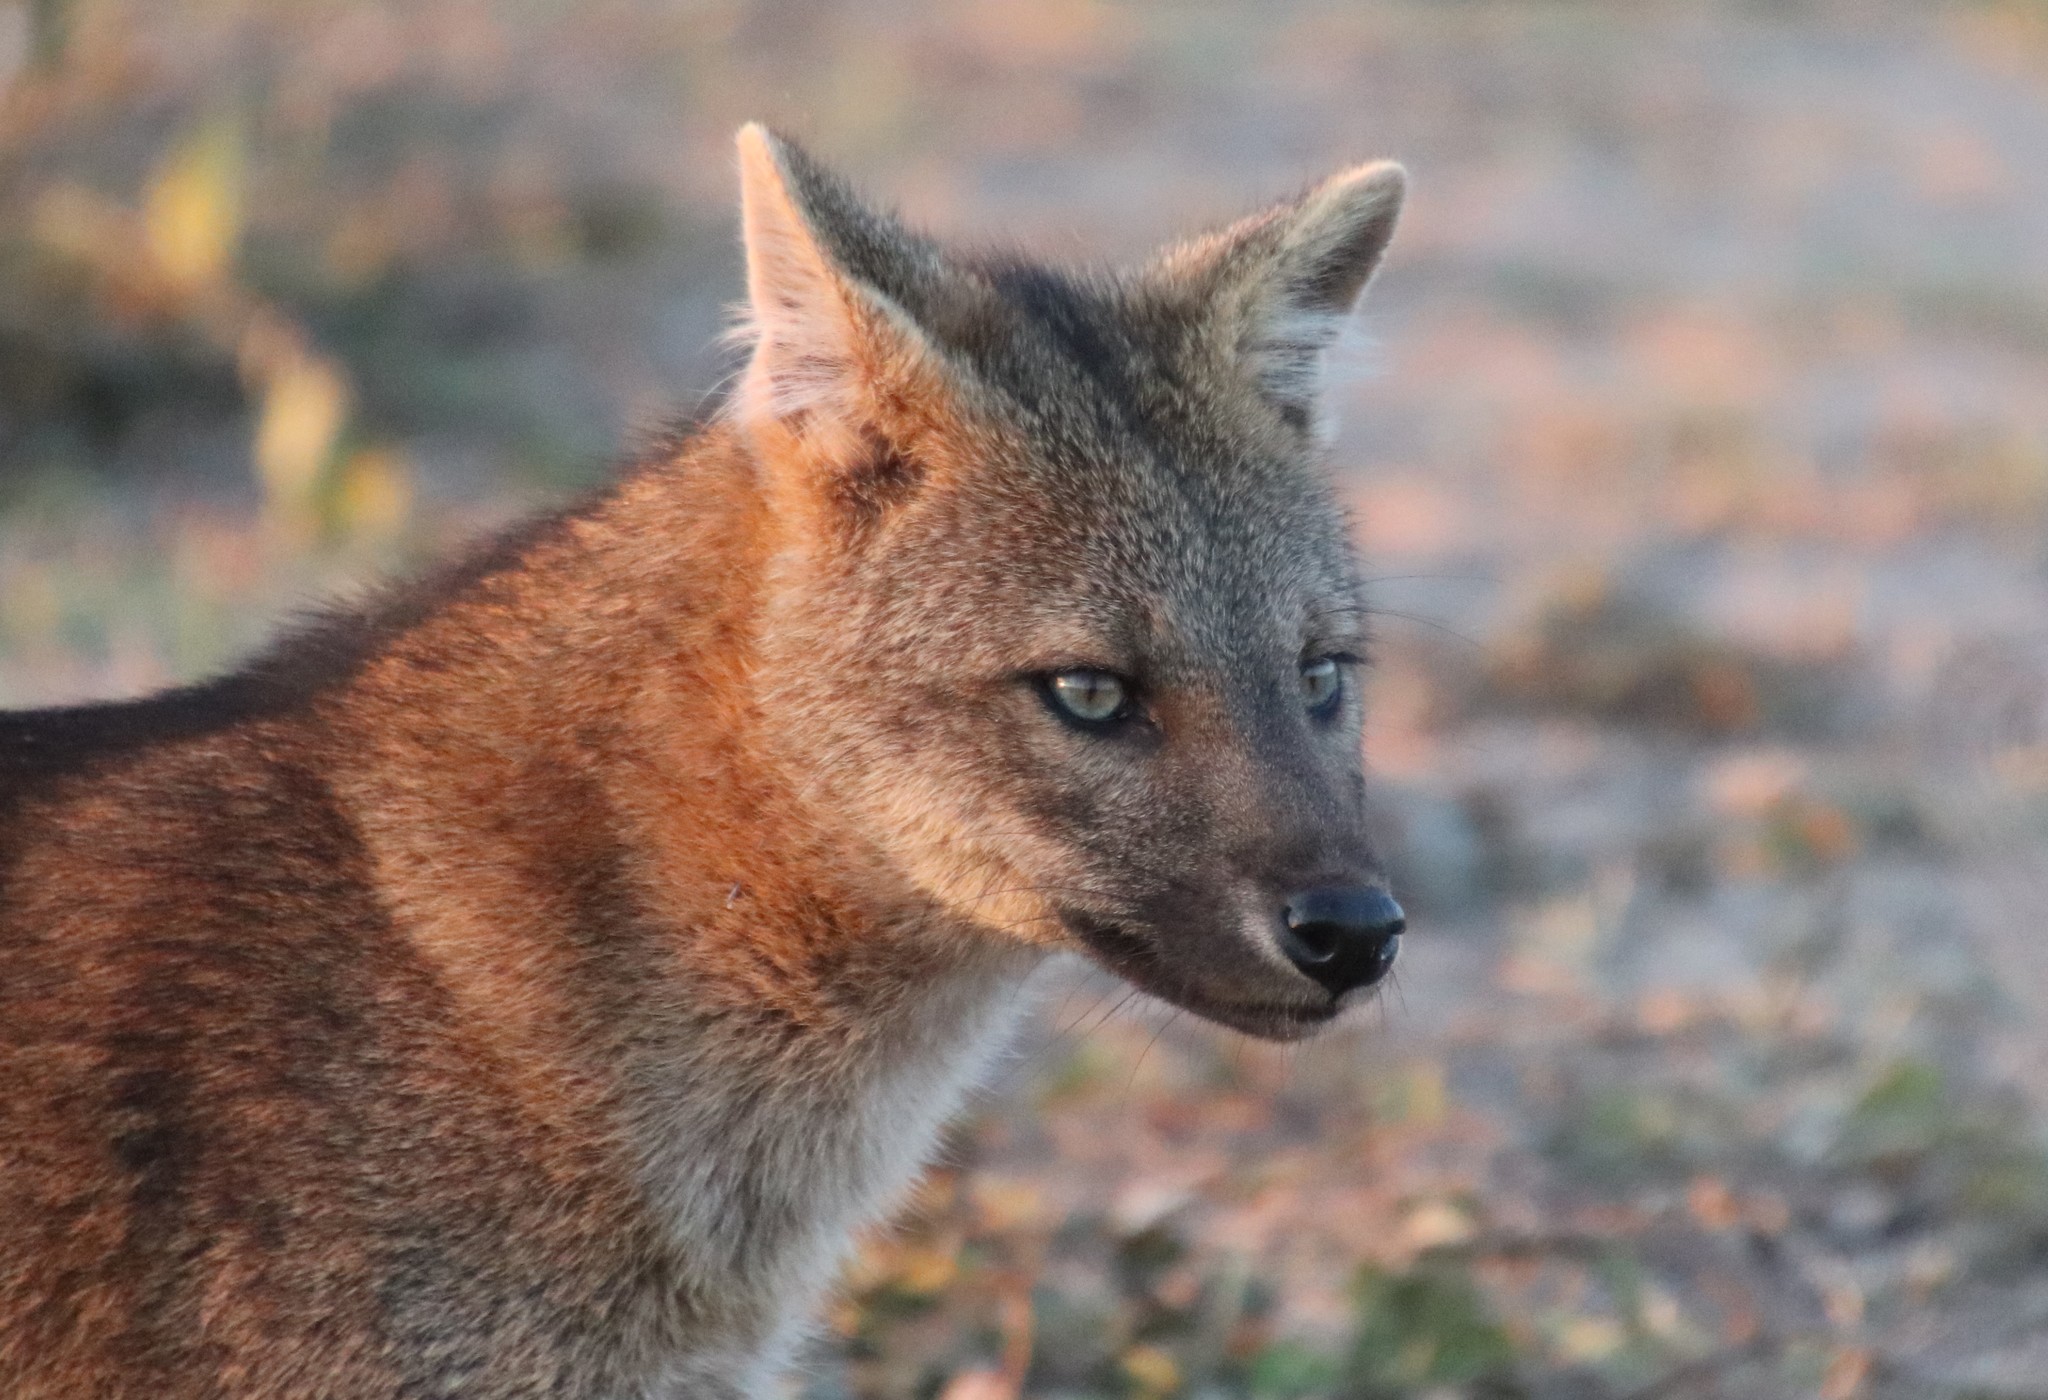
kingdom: Animalia
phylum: Chordata
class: Mammalia
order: Carnivora
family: Canidae
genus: Cerdocyon
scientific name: Cerdocyon thous
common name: Crab-eating fox
